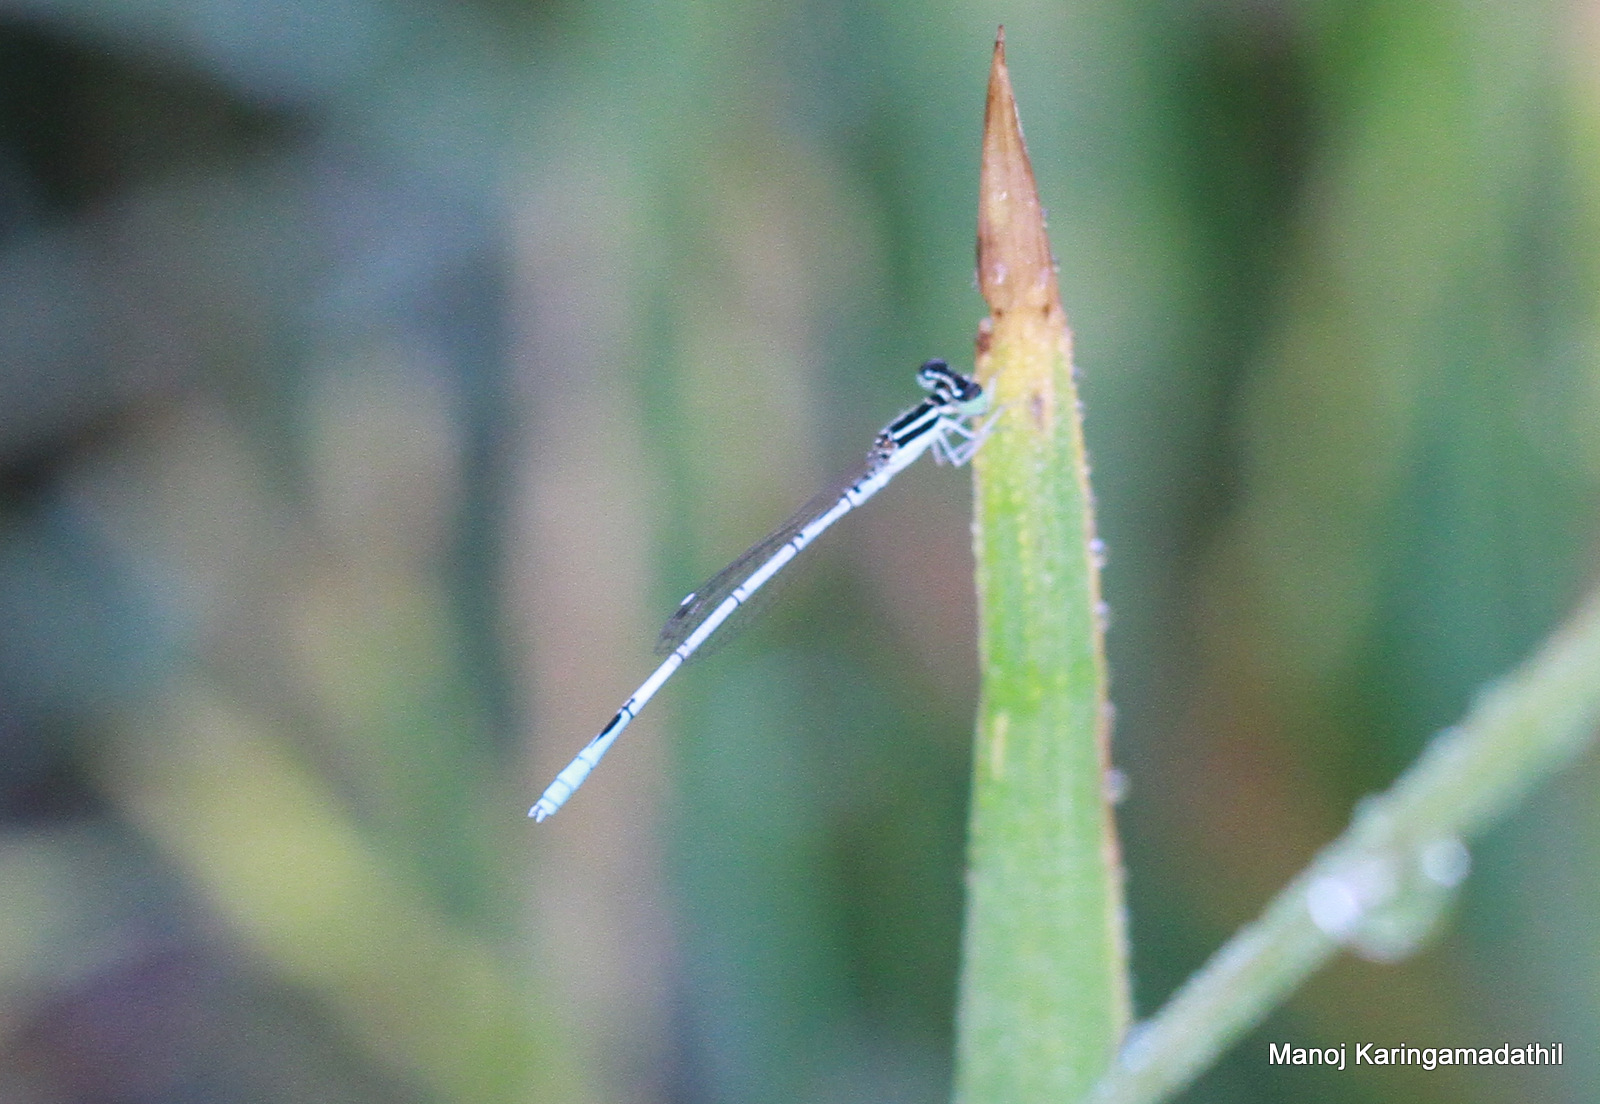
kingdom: Animalia
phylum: Arthropoda
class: Insecta
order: Odonata
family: Coenagrionidae
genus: Agriocnemis
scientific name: Agriocnemis pieris
